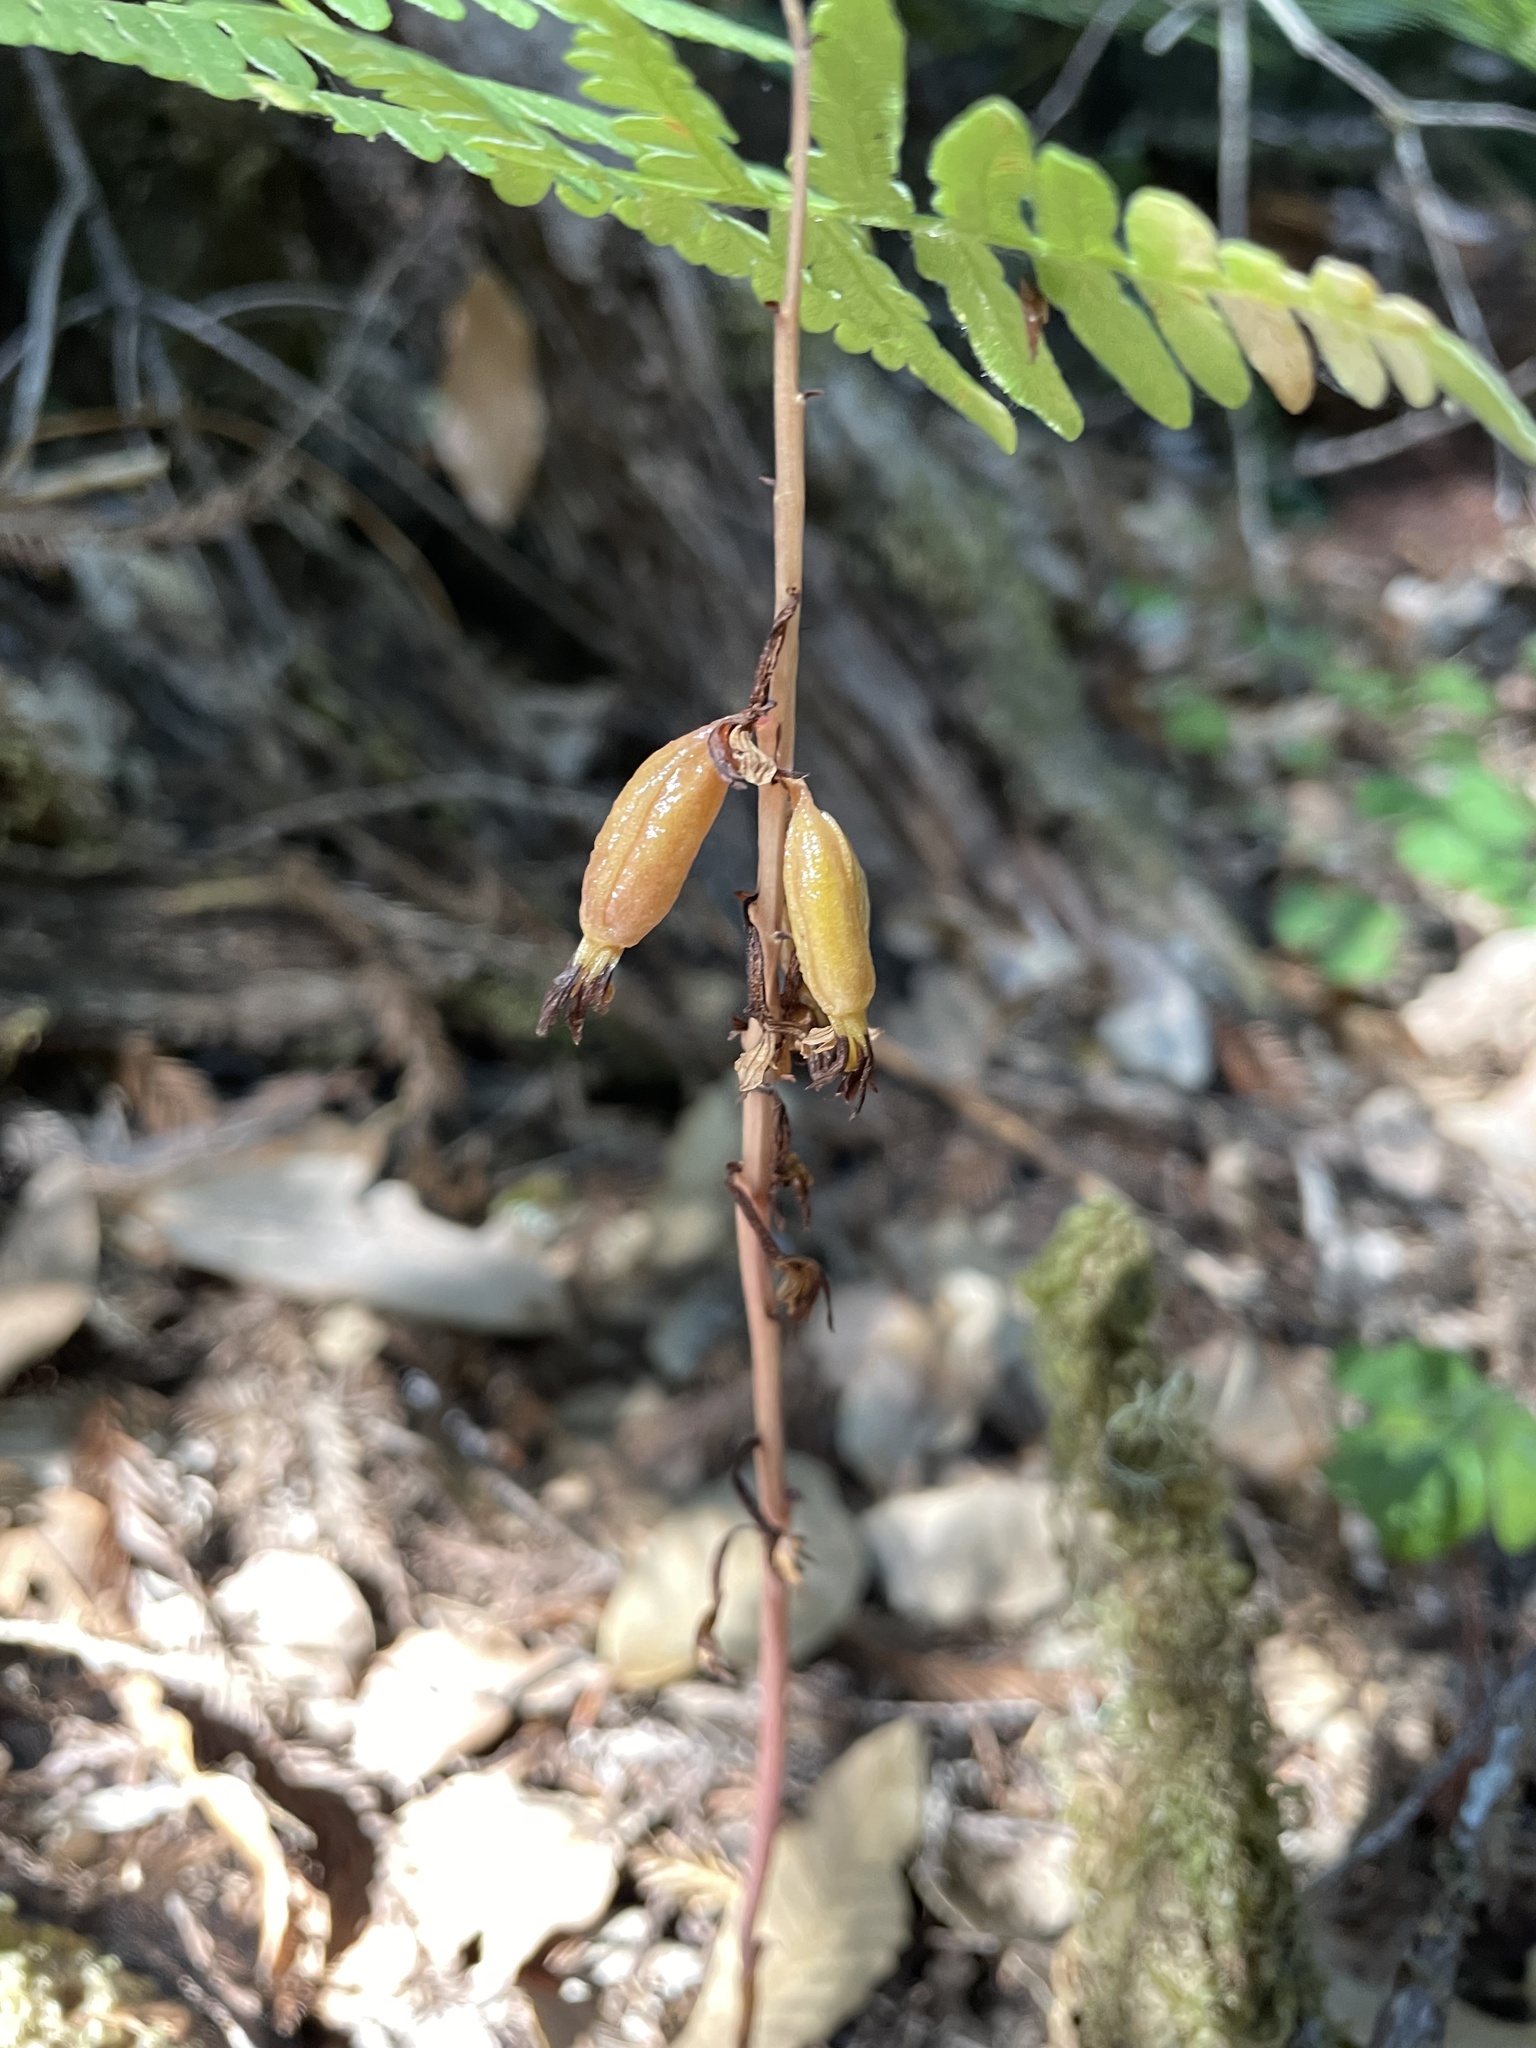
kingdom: Plantae
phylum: Tracheophyta
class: Liliopsida
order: Asparagales
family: Orchidaceae
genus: Corallorhiza
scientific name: Corallorhiza maculata
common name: Spotted coralroot
